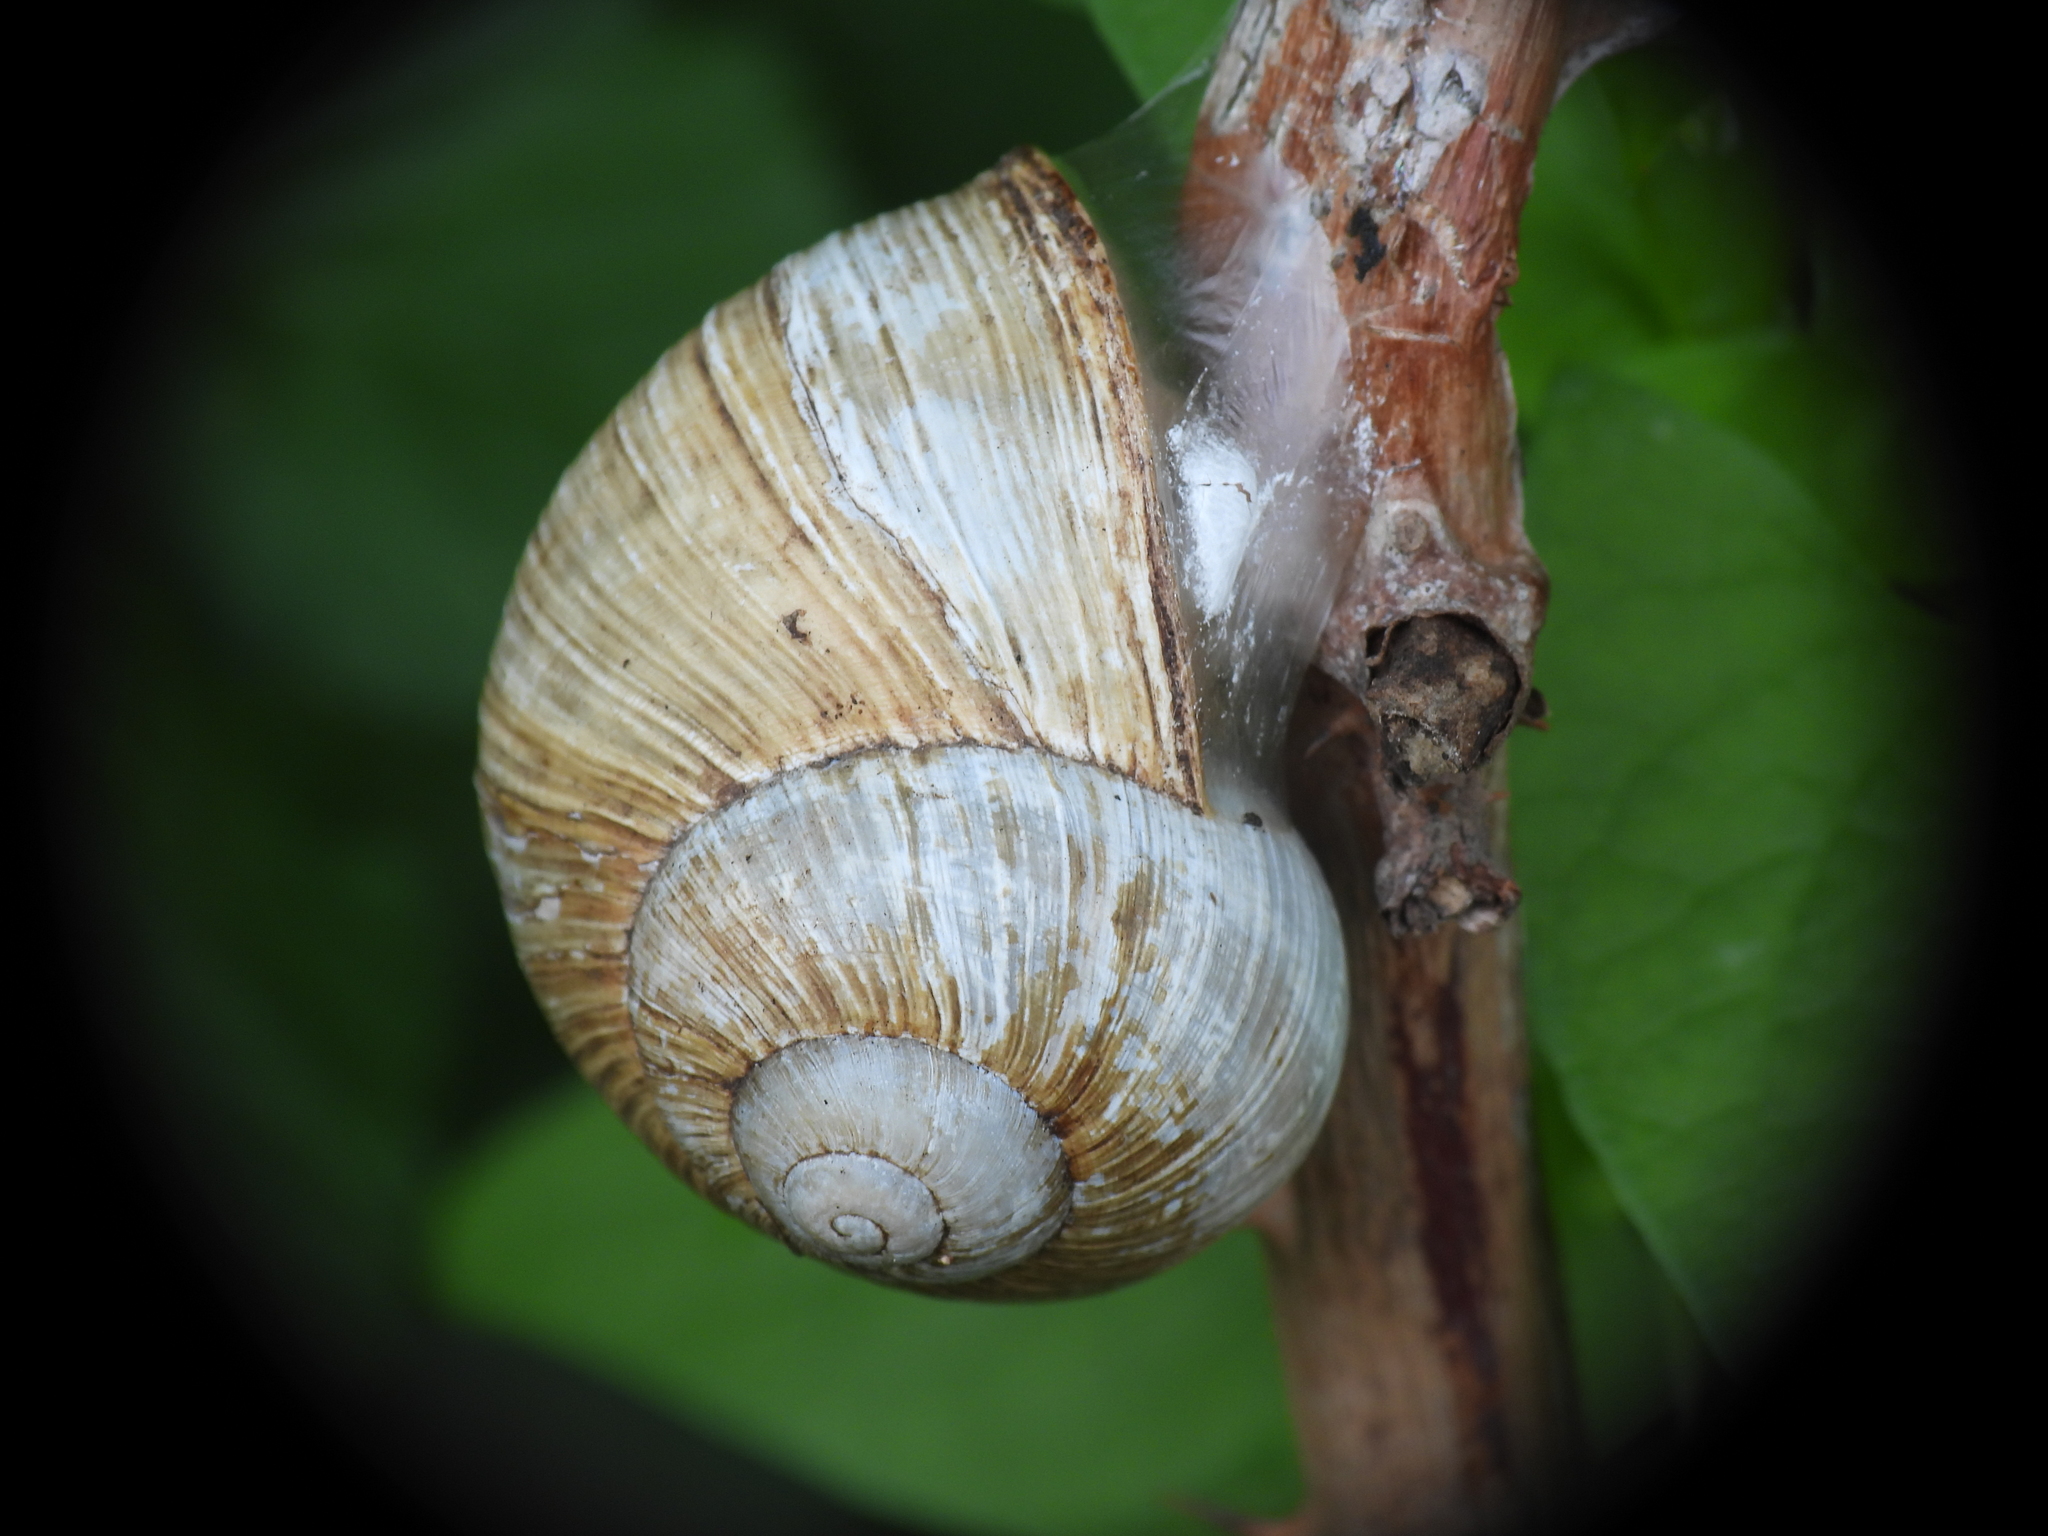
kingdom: Animalia
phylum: Mollusca
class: Gastropoda
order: Stylommatophora
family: Helicidae
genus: Helix
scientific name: Helix pomatia
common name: Roman snail
